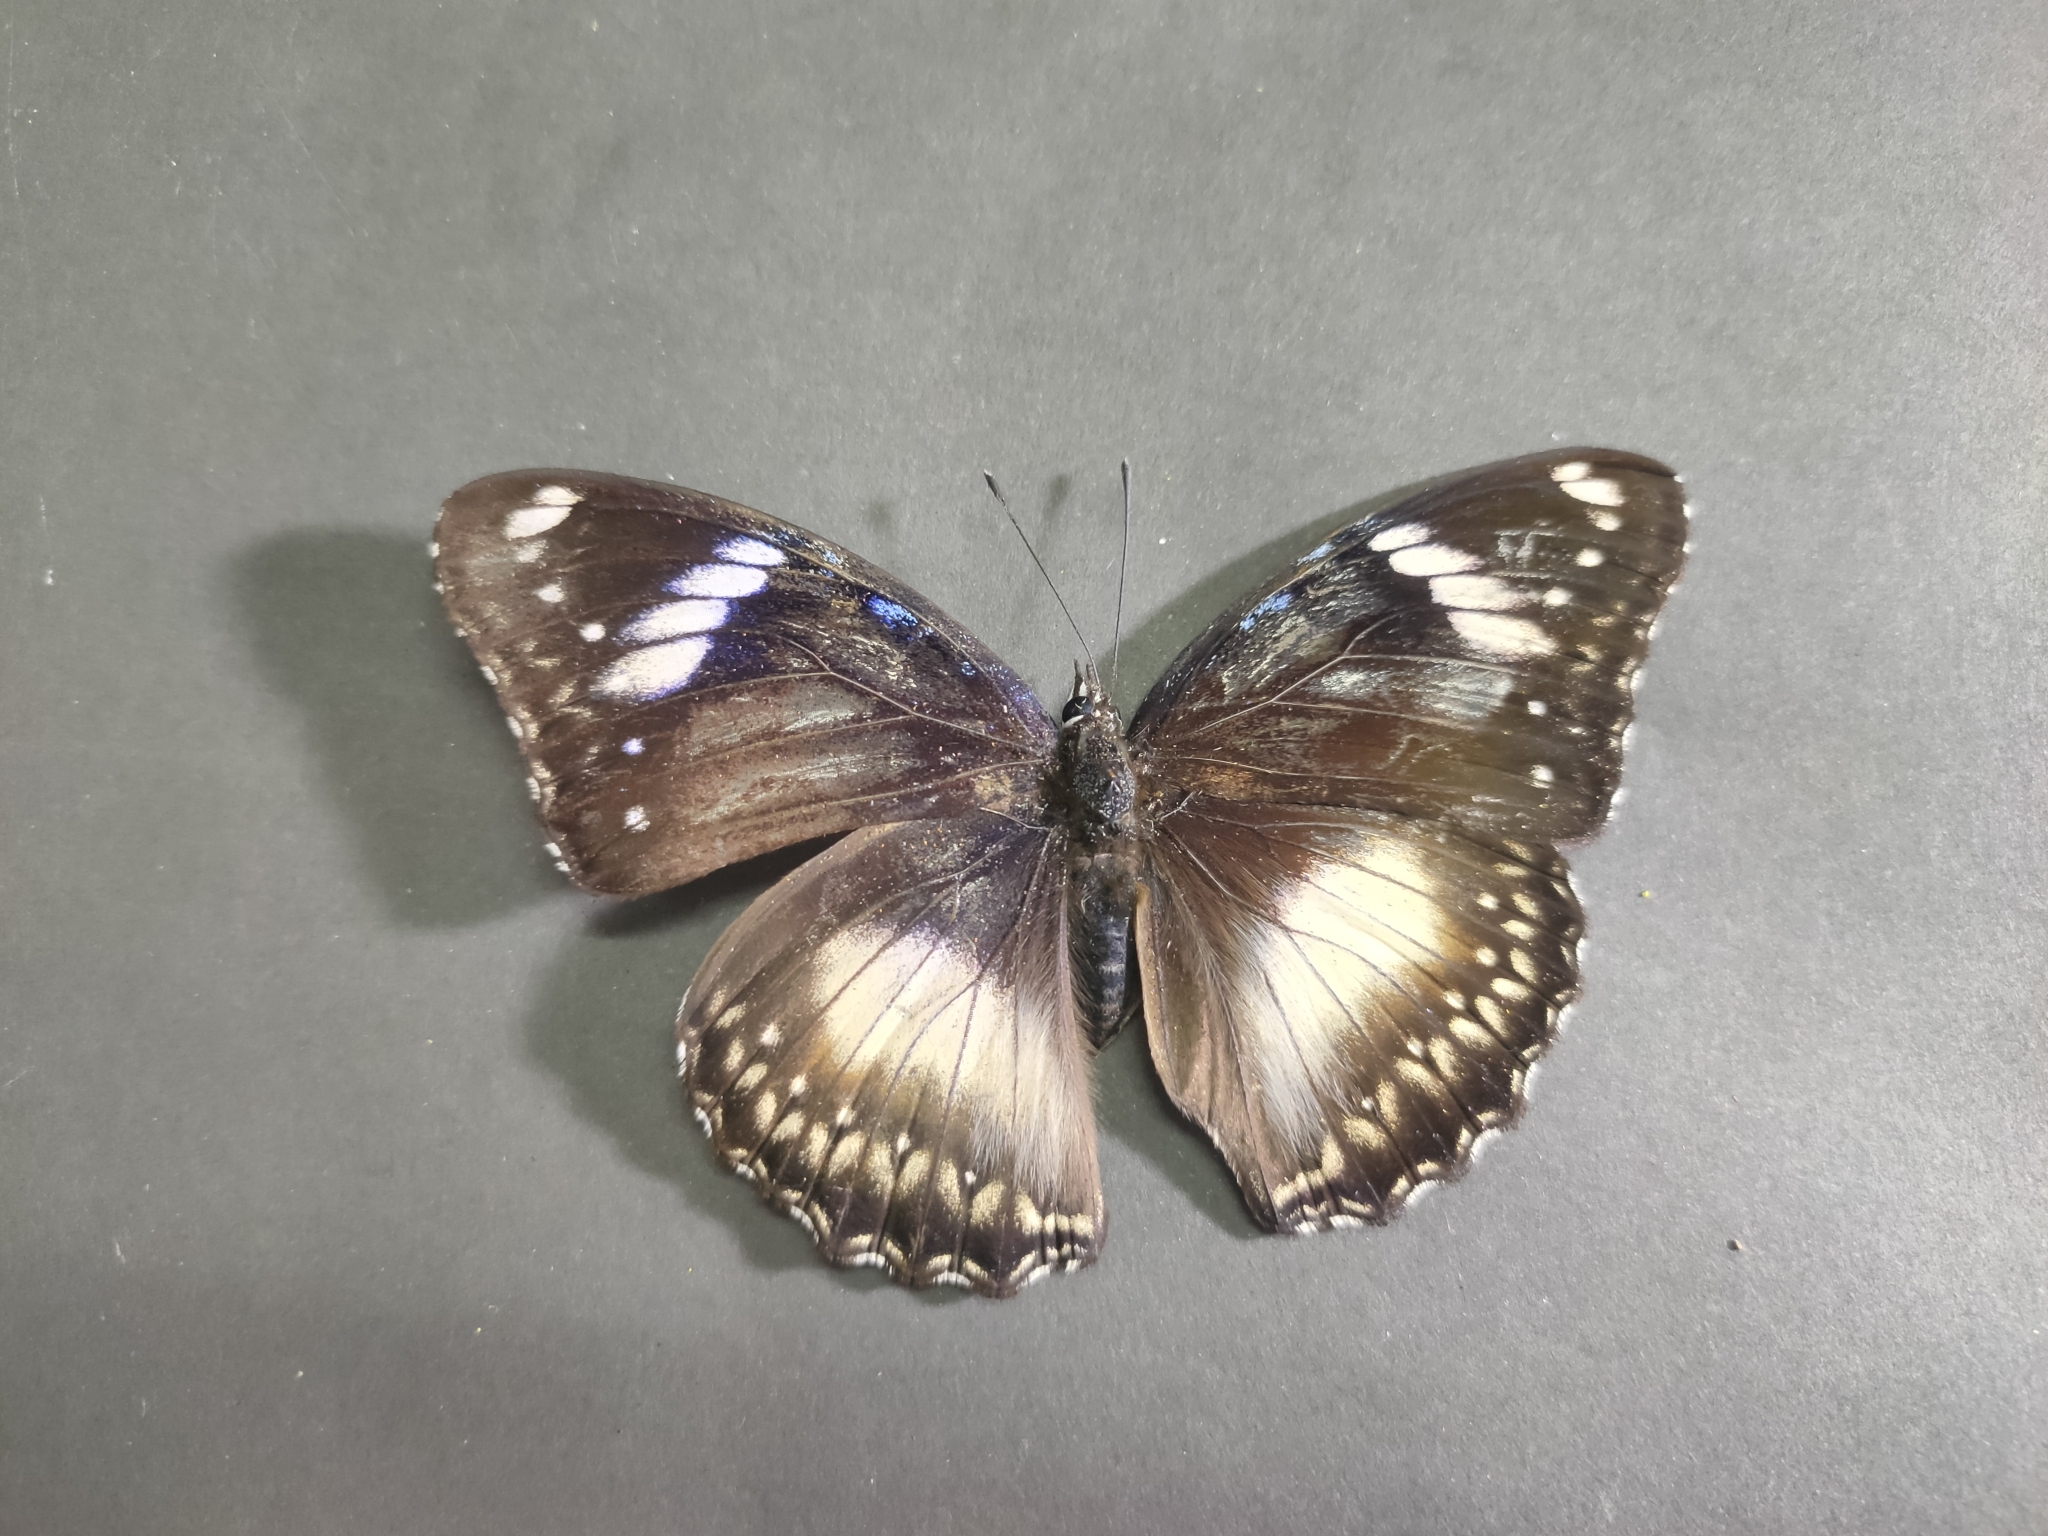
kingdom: Animalia
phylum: Arthropoda
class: Insecta
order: Lepidoptera
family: Nymphalidae
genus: Hypolimnas
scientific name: Hypolimnas bolina
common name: Great eggfly
